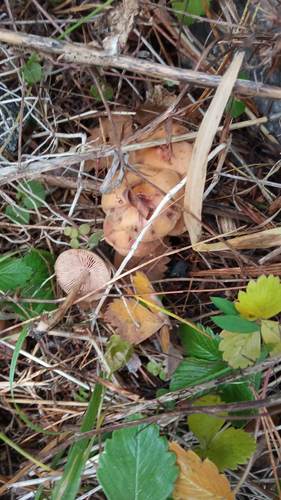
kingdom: Fungi
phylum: Basidiomycota
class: Agaricomycetes
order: Agaricales
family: Hymenogastraceae
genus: Hebeloma
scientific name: Hebeloma
